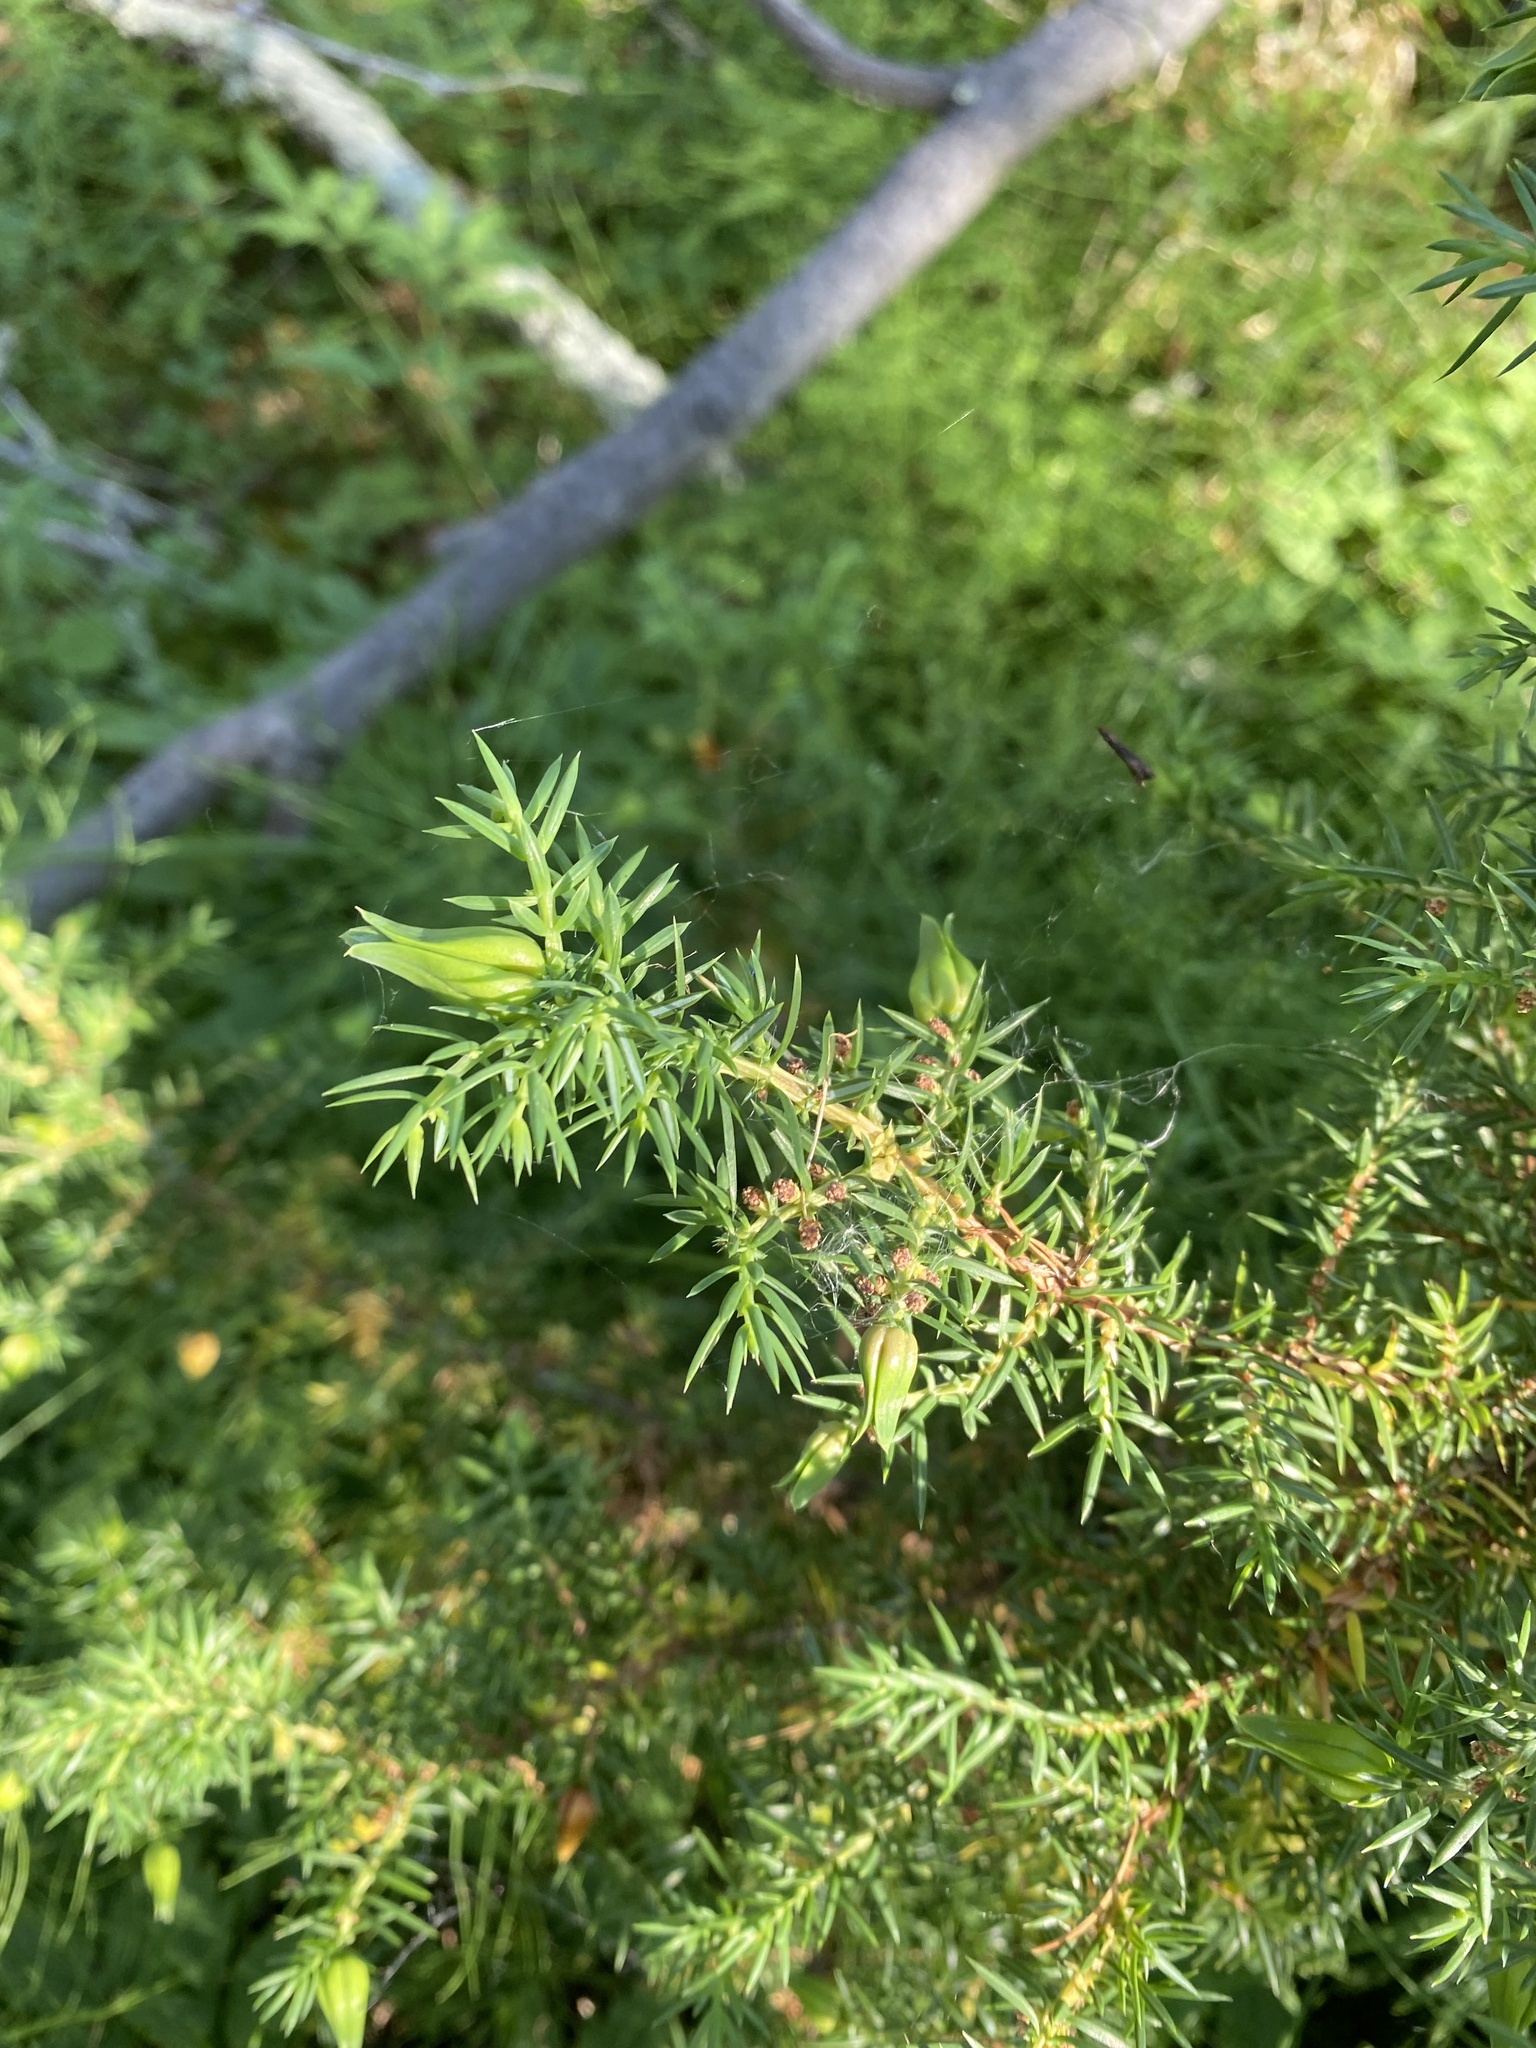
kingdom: Plantae
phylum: Tracheophyta
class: Pinopsida
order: Pinales
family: Cupressaceae
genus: Juniperus
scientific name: Juniperus communis
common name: Common juniper
